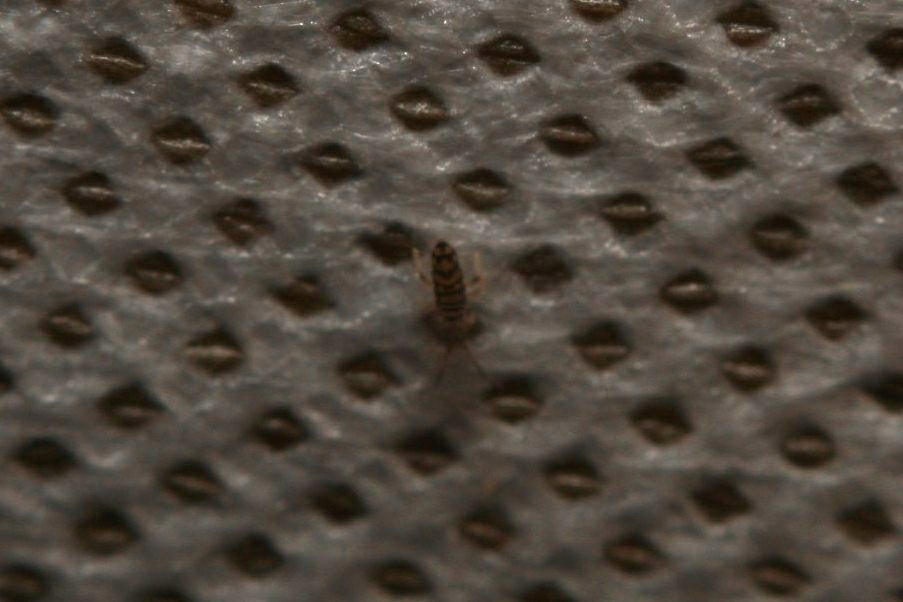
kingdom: Animalia
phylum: Arthropoda
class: Collembola
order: Entomobryomorpha
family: Entomobryidae
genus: Entomobrya
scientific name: Entomobrya multifasciata
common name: Springtail
